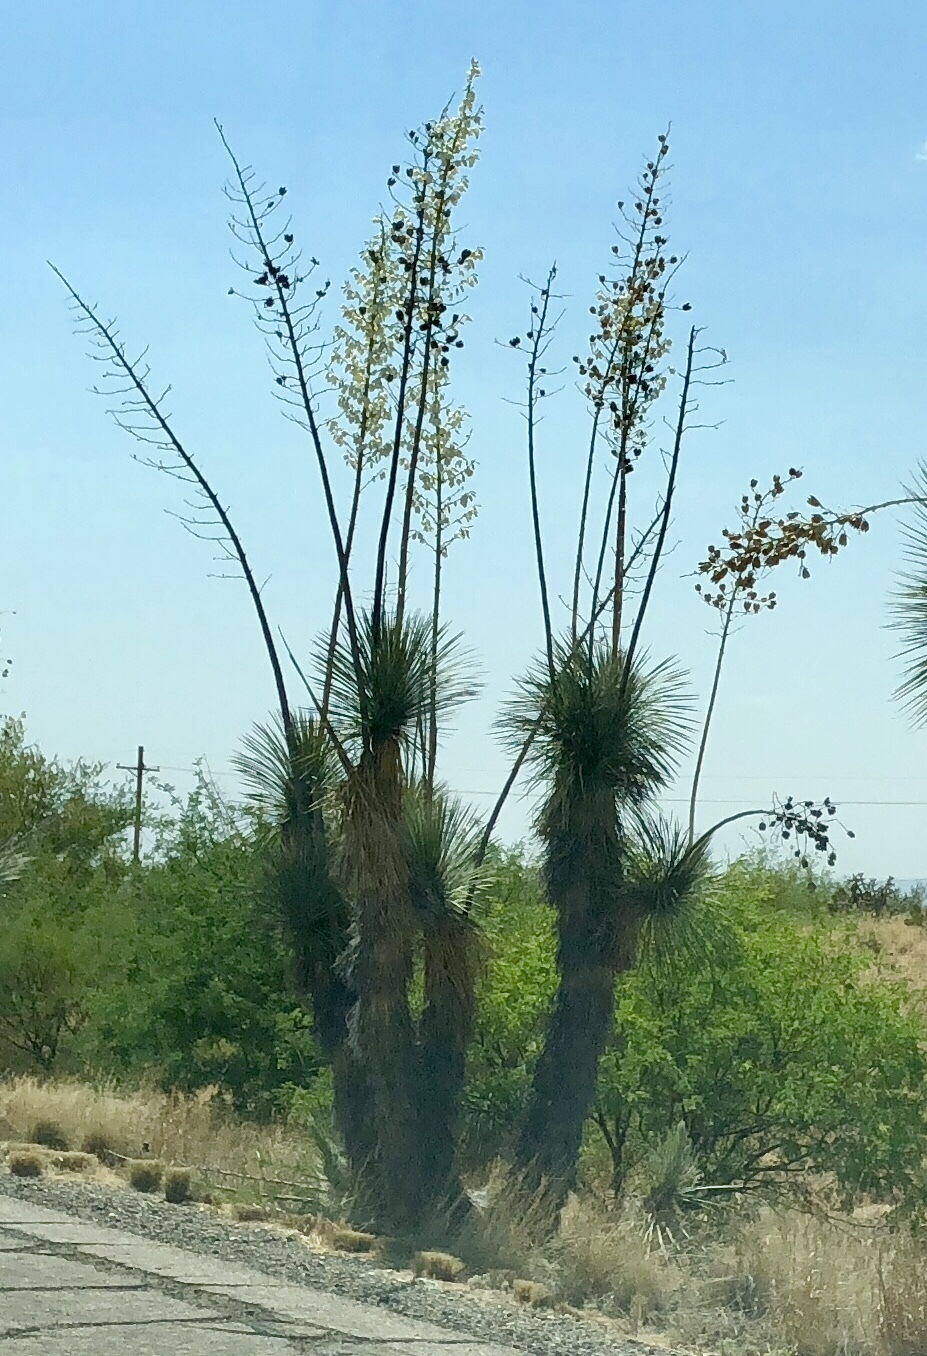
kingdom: Plantae
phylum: Tracheophyta
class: Liliopsida
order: Asparagales
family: Asparagaceae
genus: Yucca
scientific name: Yucca elata
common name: Palmella
